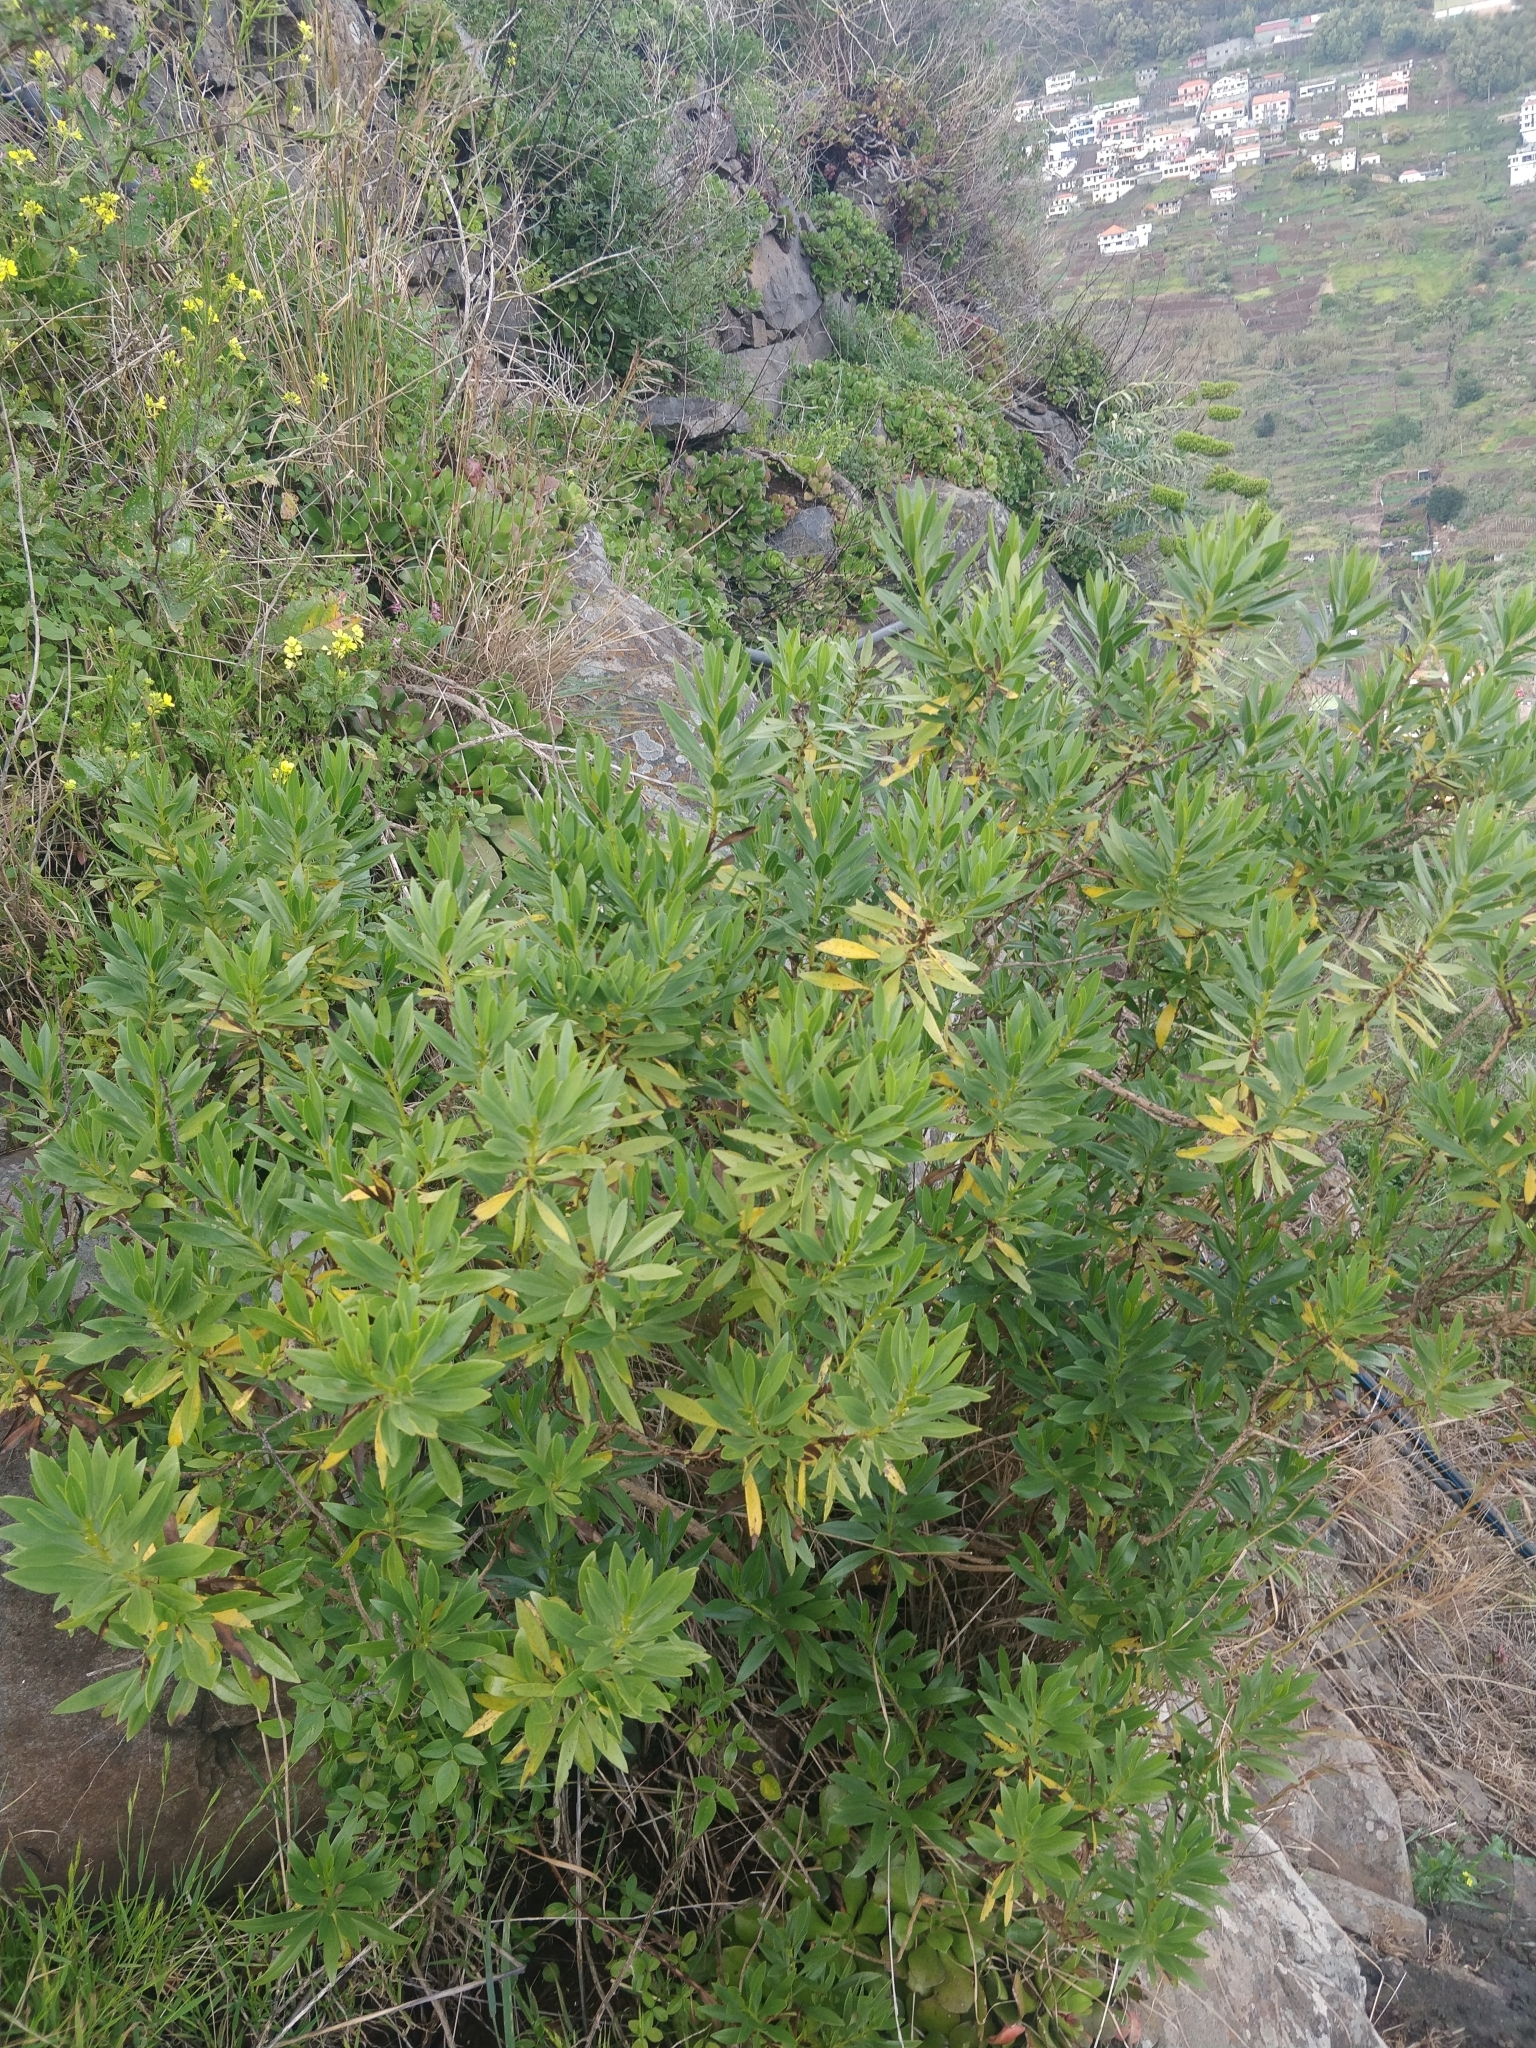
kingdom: Plantae
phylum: Tracheophyta
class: Magnoliopsida
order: Lamiales
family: Plantaginaceae
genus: Globularia
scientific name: Globularia salicina
